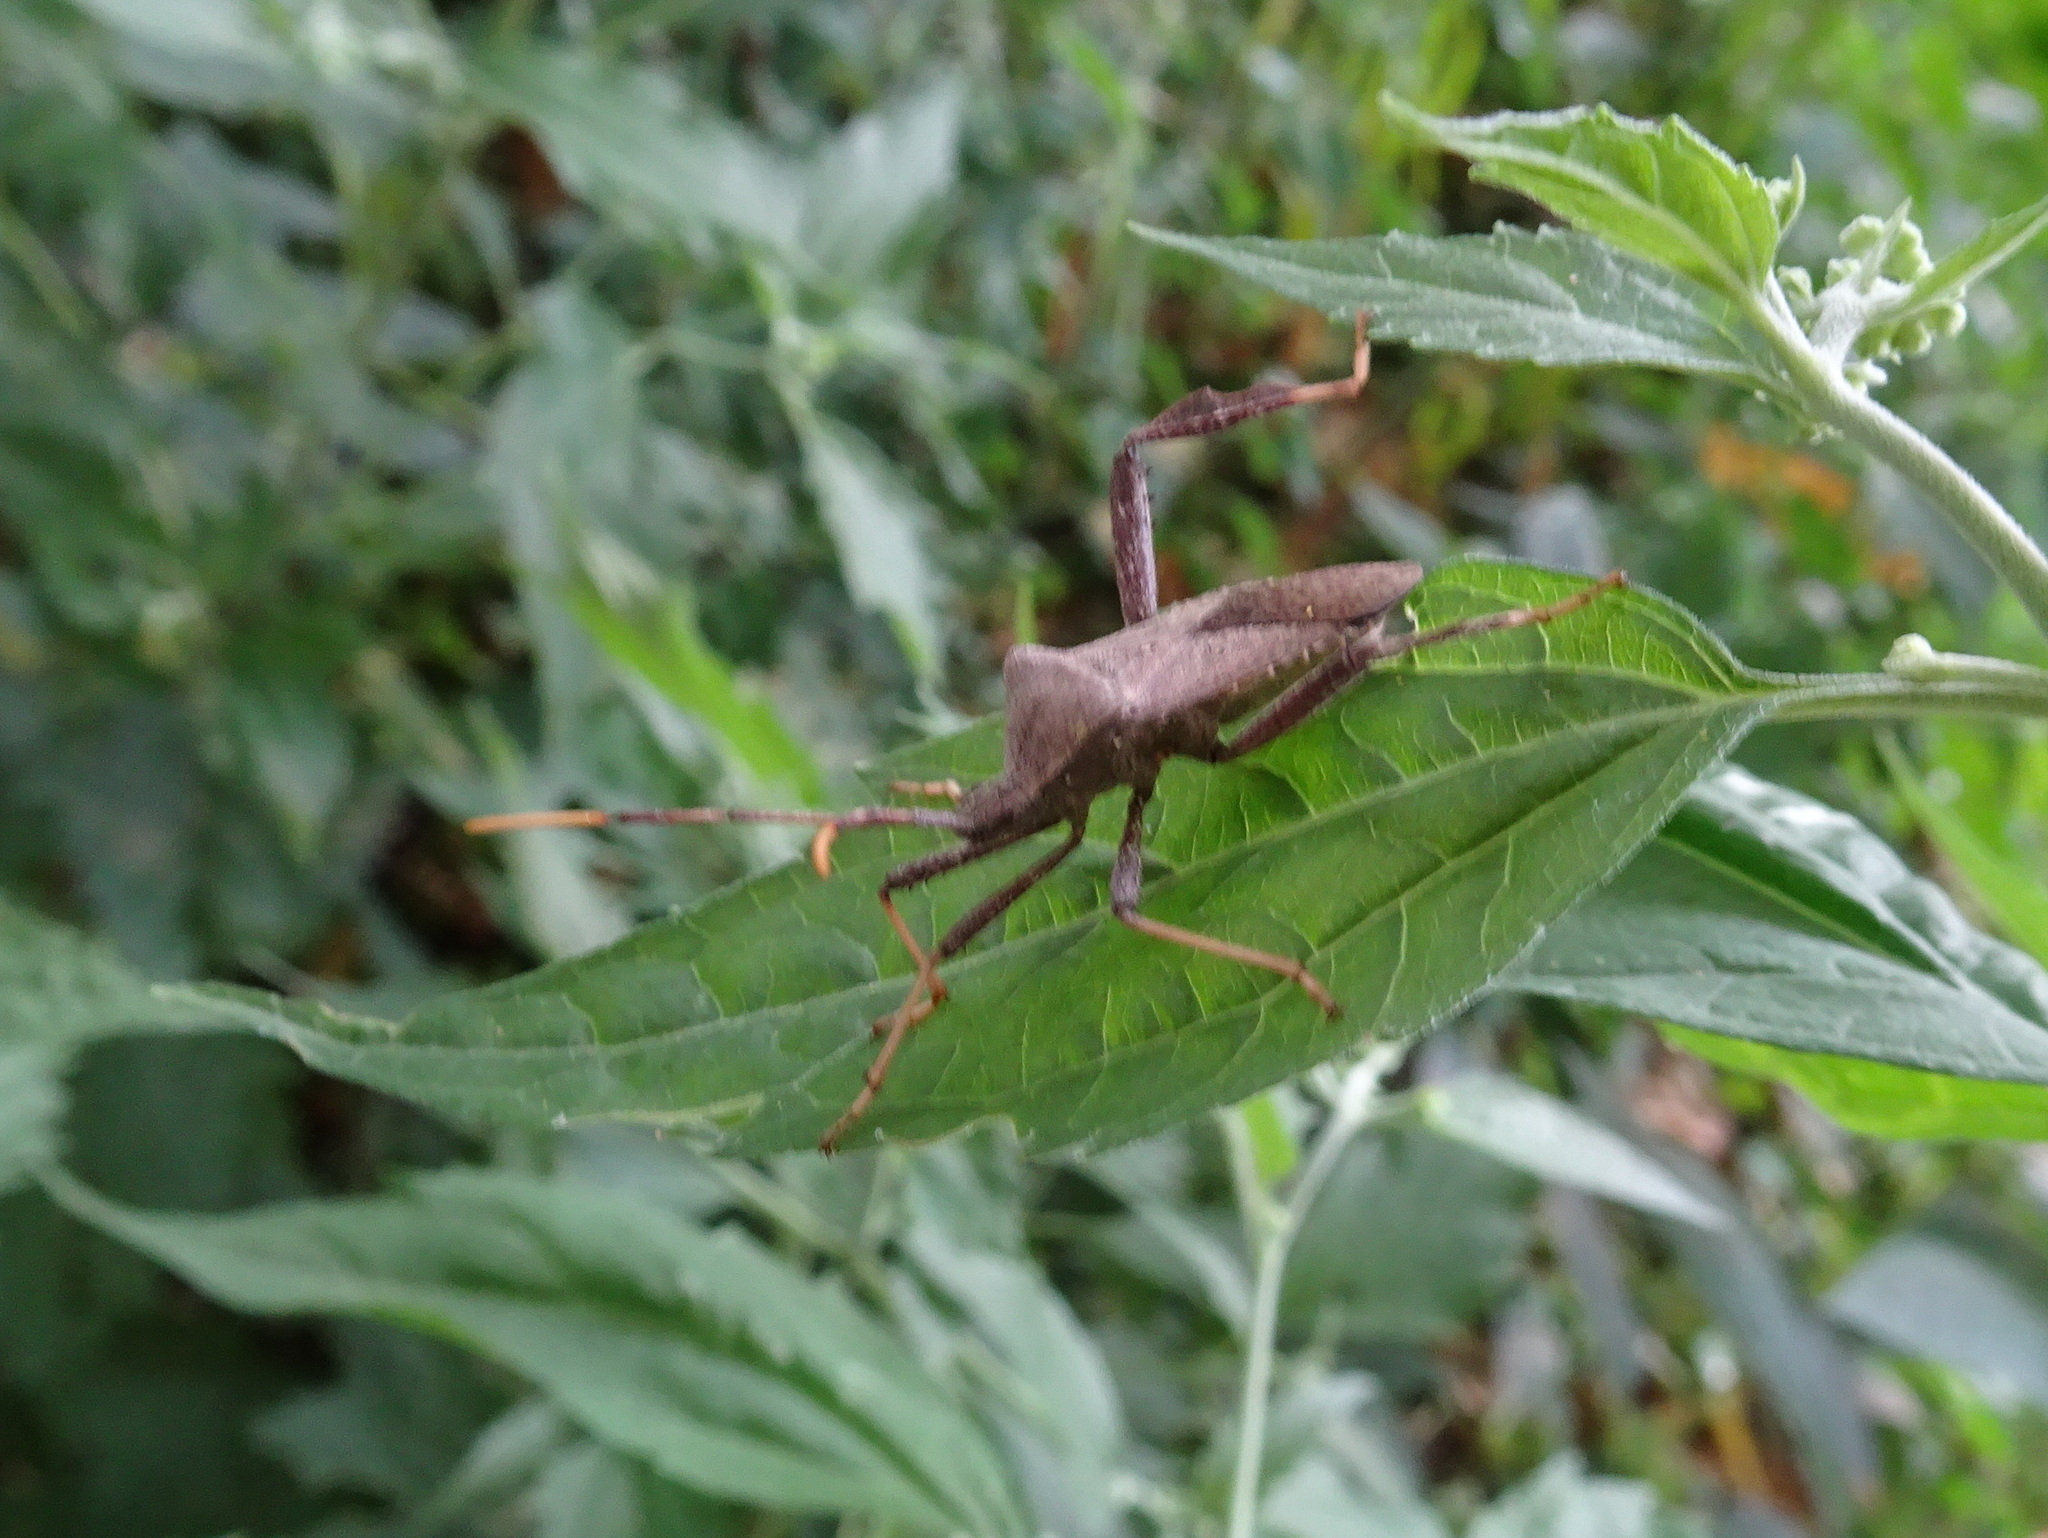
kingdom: Animalia
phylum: Arthropoda
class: Insecta
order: Hemiptera
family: Coreidae
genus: Acanthocephala
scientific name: Acanthocephala terminalis
